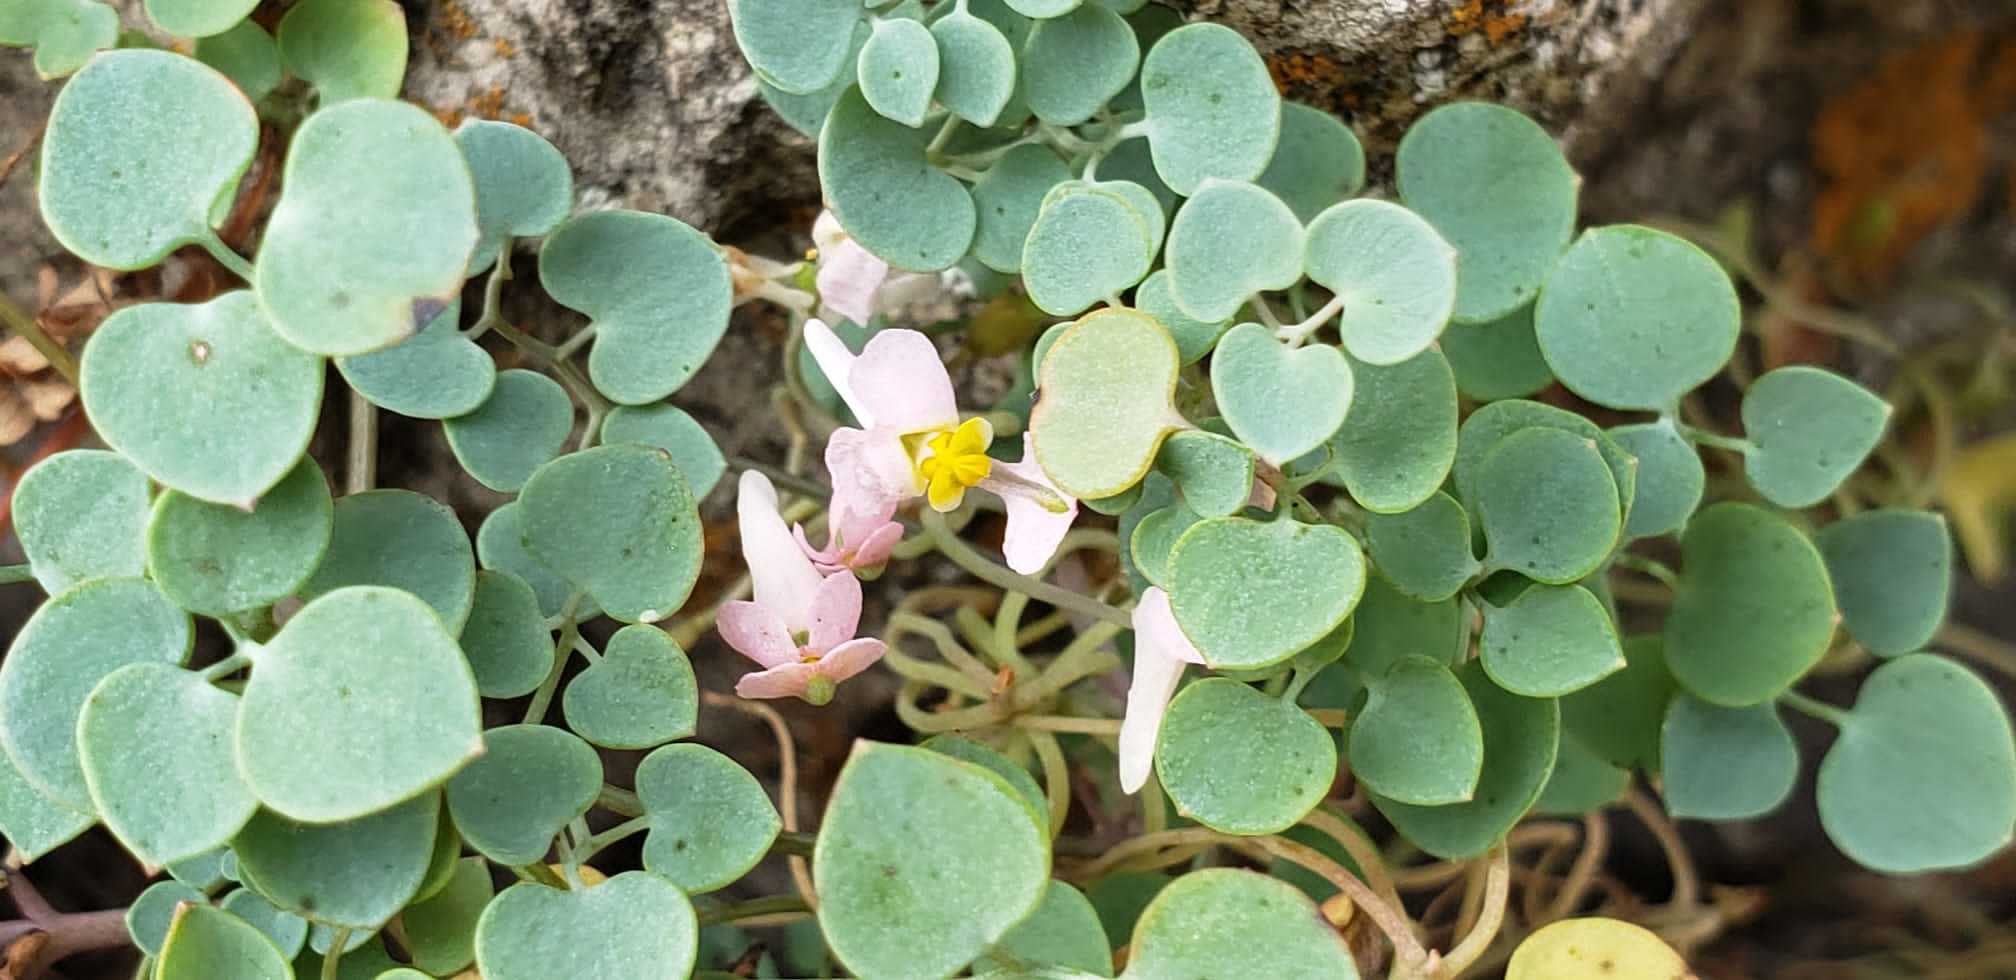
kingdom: Plantae
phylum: Tracheophyta
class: Magnoliopsida
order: Ranunculales
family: Papaveraceae
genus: Sarcocapnos
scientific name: Sarcocapnos enneaphylla
